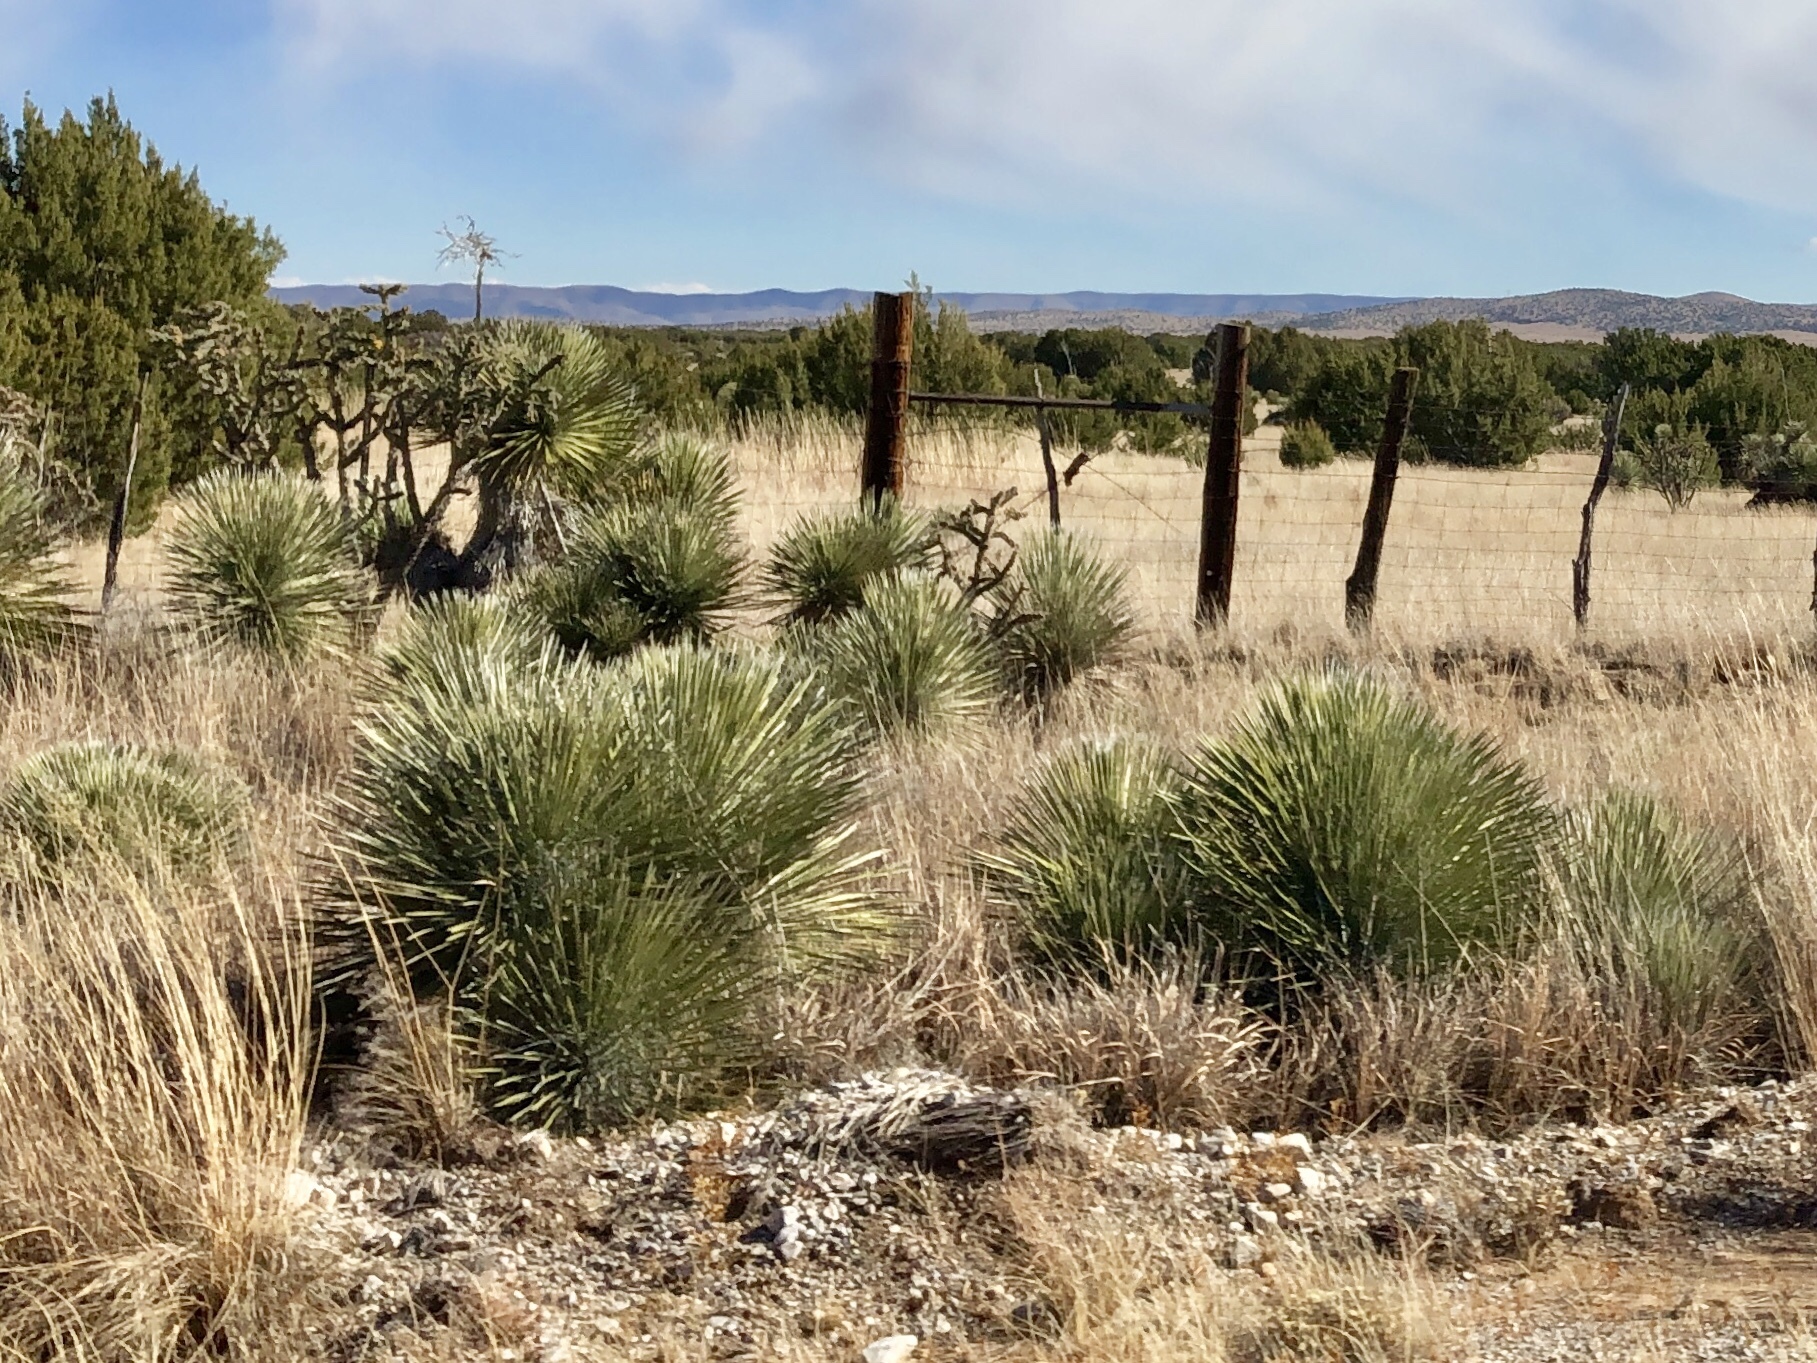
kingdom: Plantae
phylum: Tracheophyta
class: Liliopsida
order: Asparagales
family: Asparagaceae
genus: Yucca
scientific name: Yucca elata
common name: Palmella
